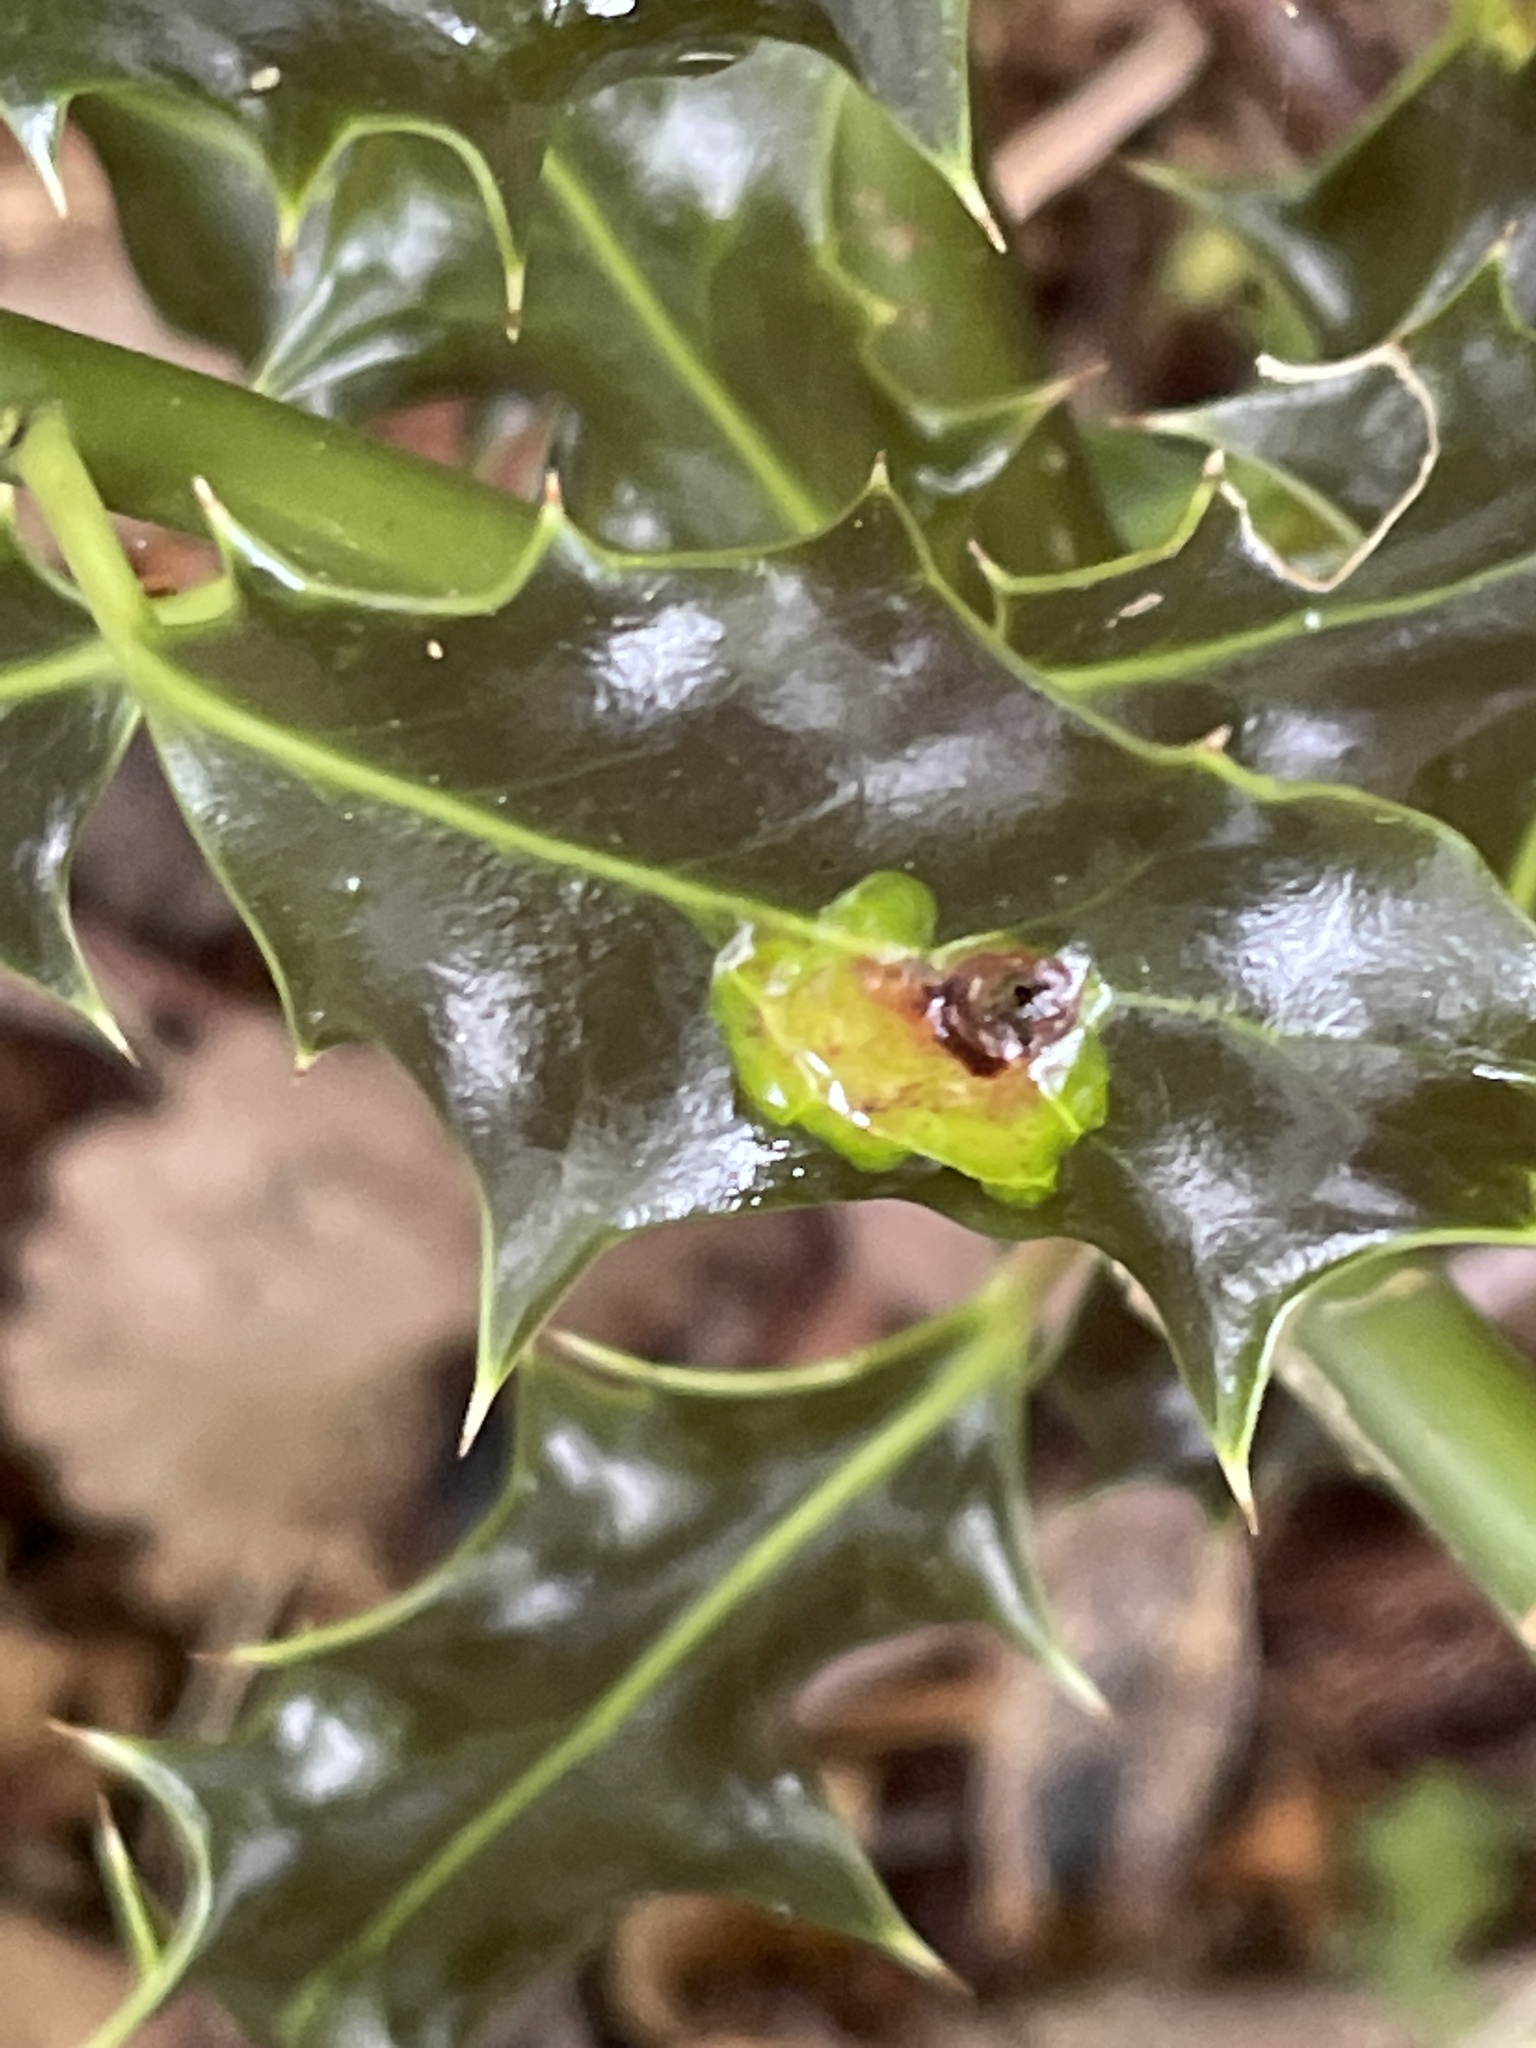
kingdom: Animalia
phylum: Arthropoda
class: Insecta
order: Diptera
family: Agromyzidae
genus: Phytomyza
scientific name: Phytomyza ilicis
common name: Holly leafminer
